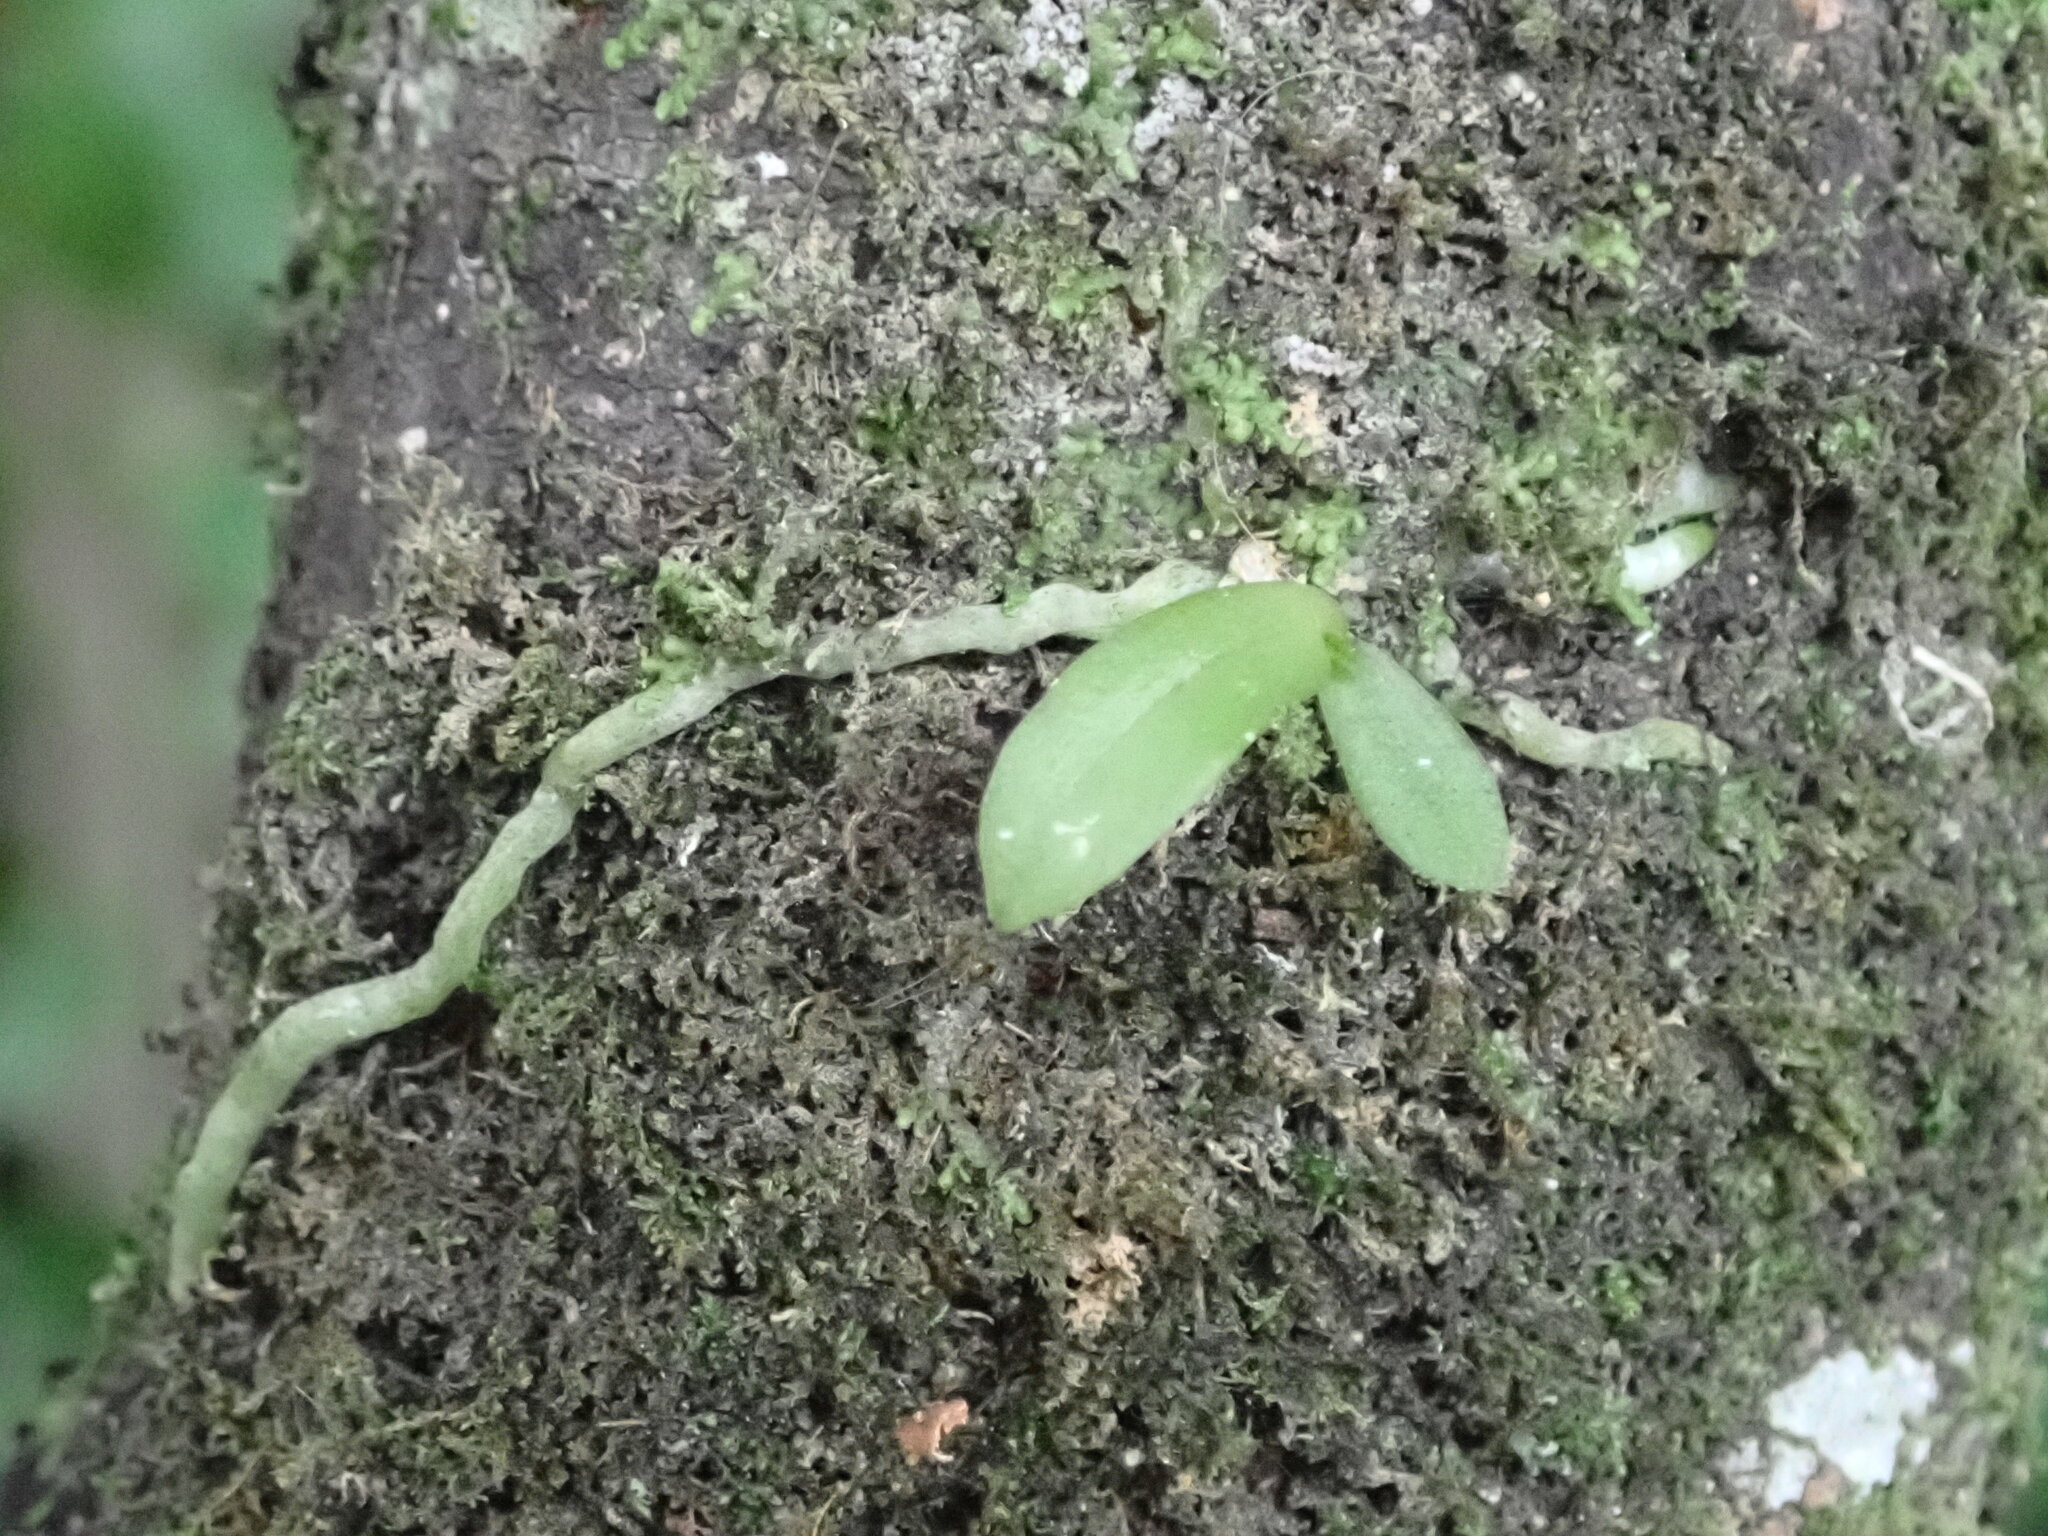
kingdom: Plantae
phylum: Tracheophyta
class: Liliopsida
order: Asparagales
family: Orchidaceae
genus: Drymoanthus
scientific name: Drymoanthus adversus
